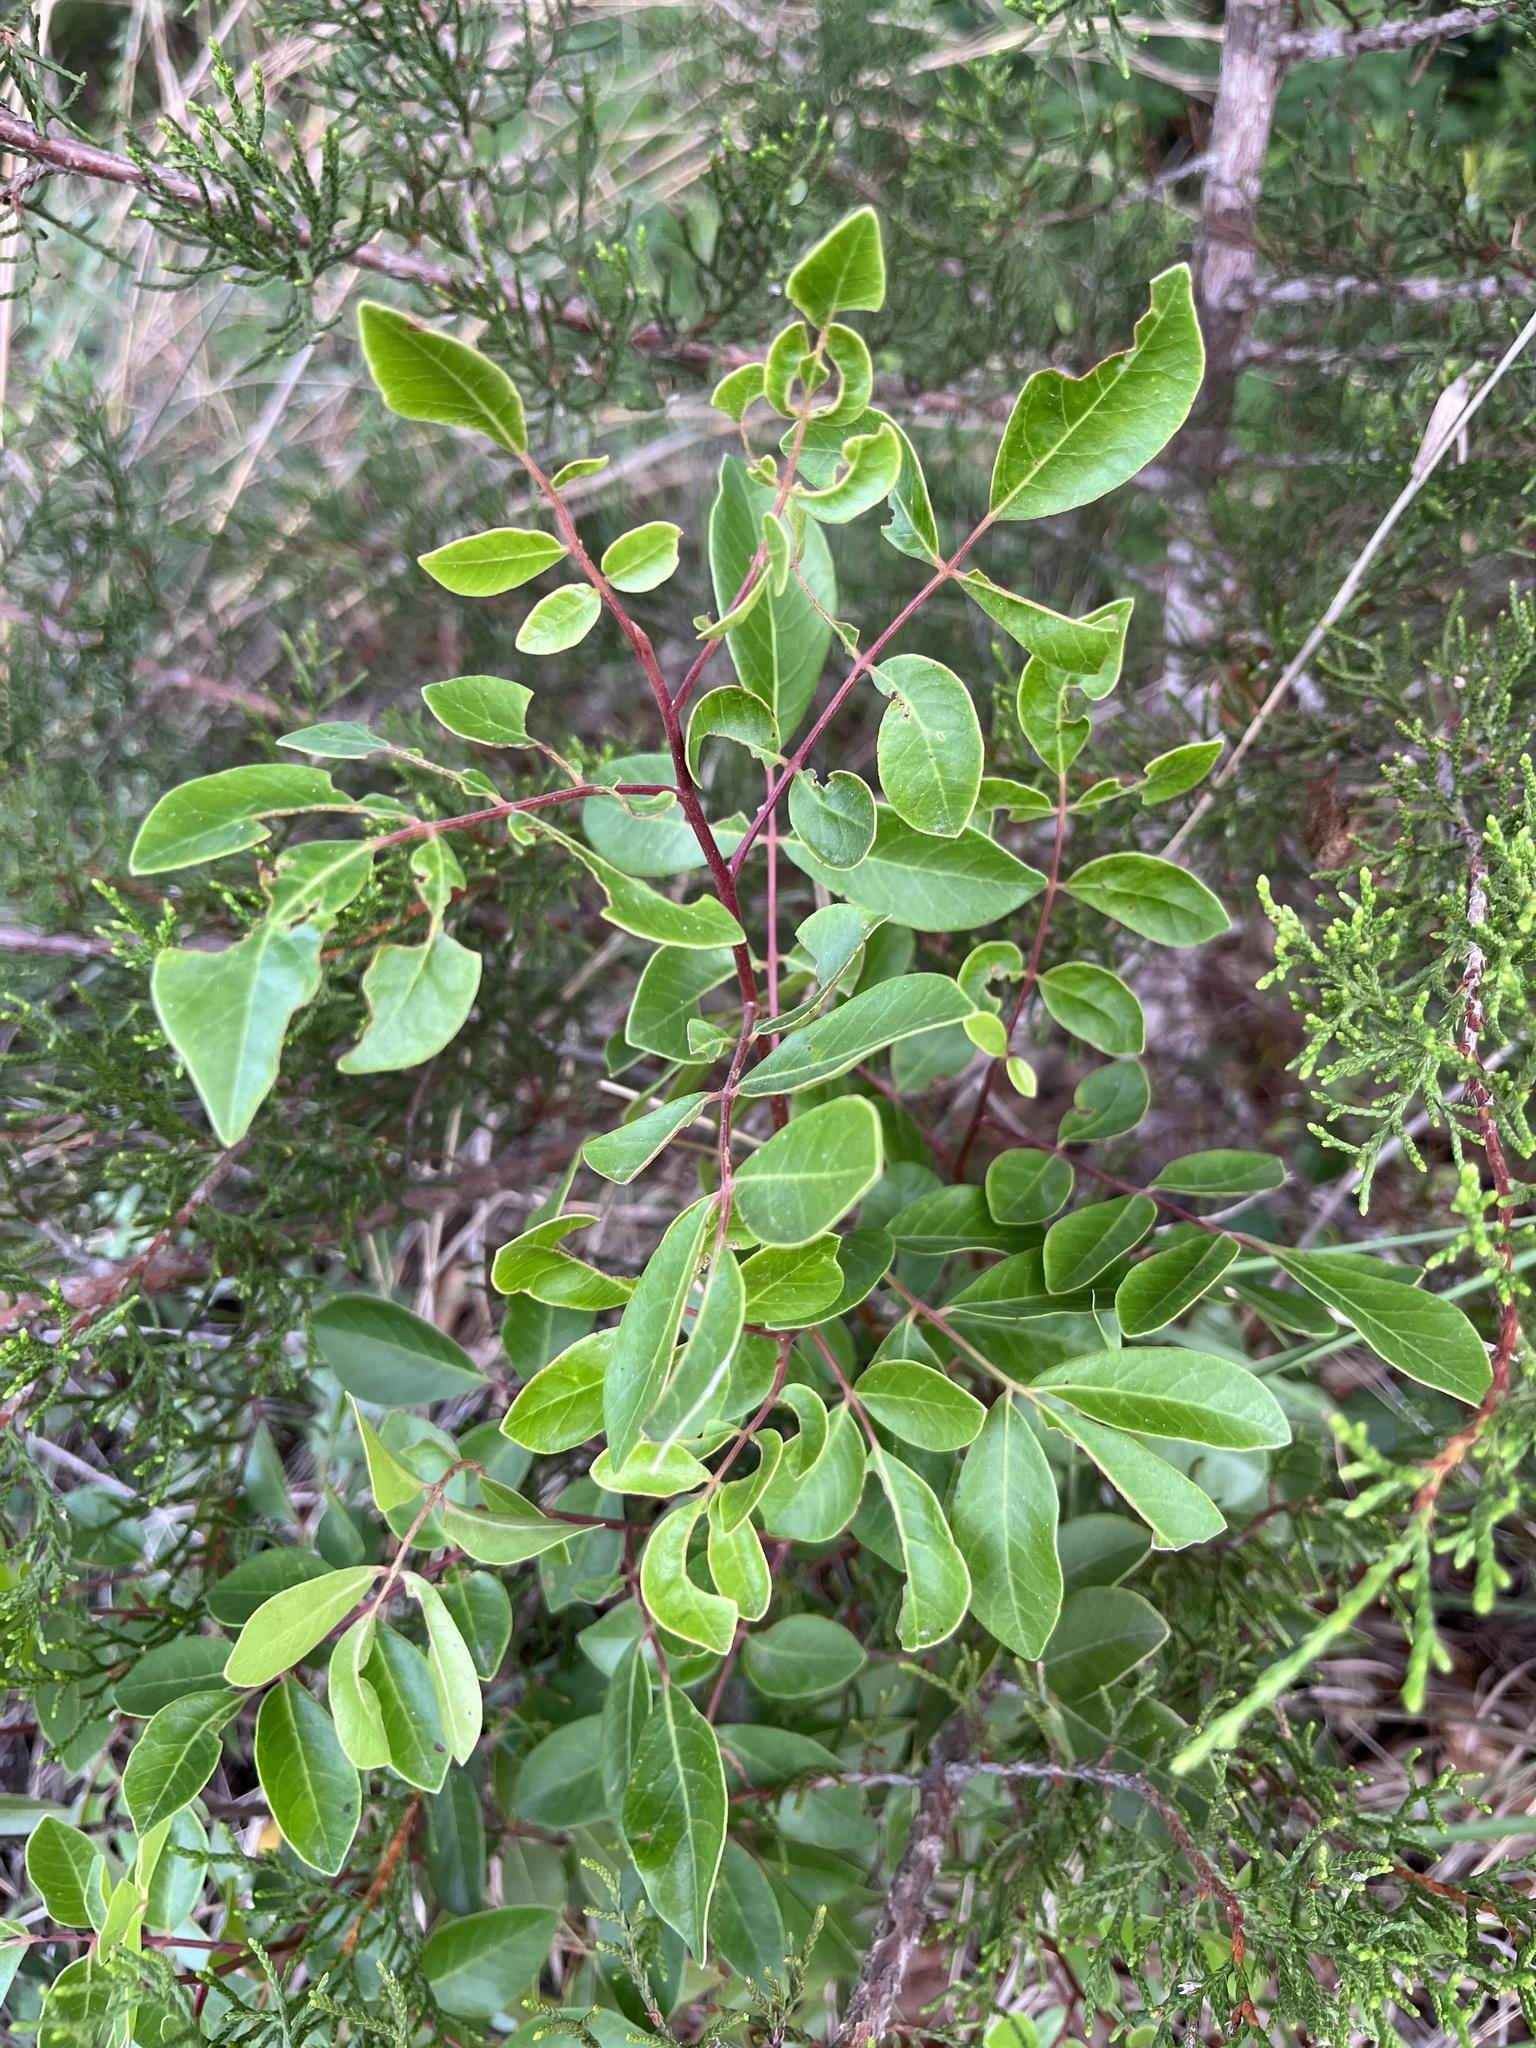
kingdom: Plantae
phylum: Tracheophyta
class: Magnoliopsida
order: Sapindales
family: Anacardiaceae
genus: Rhus
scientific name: Rhus virens
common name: Evergreen sumac
